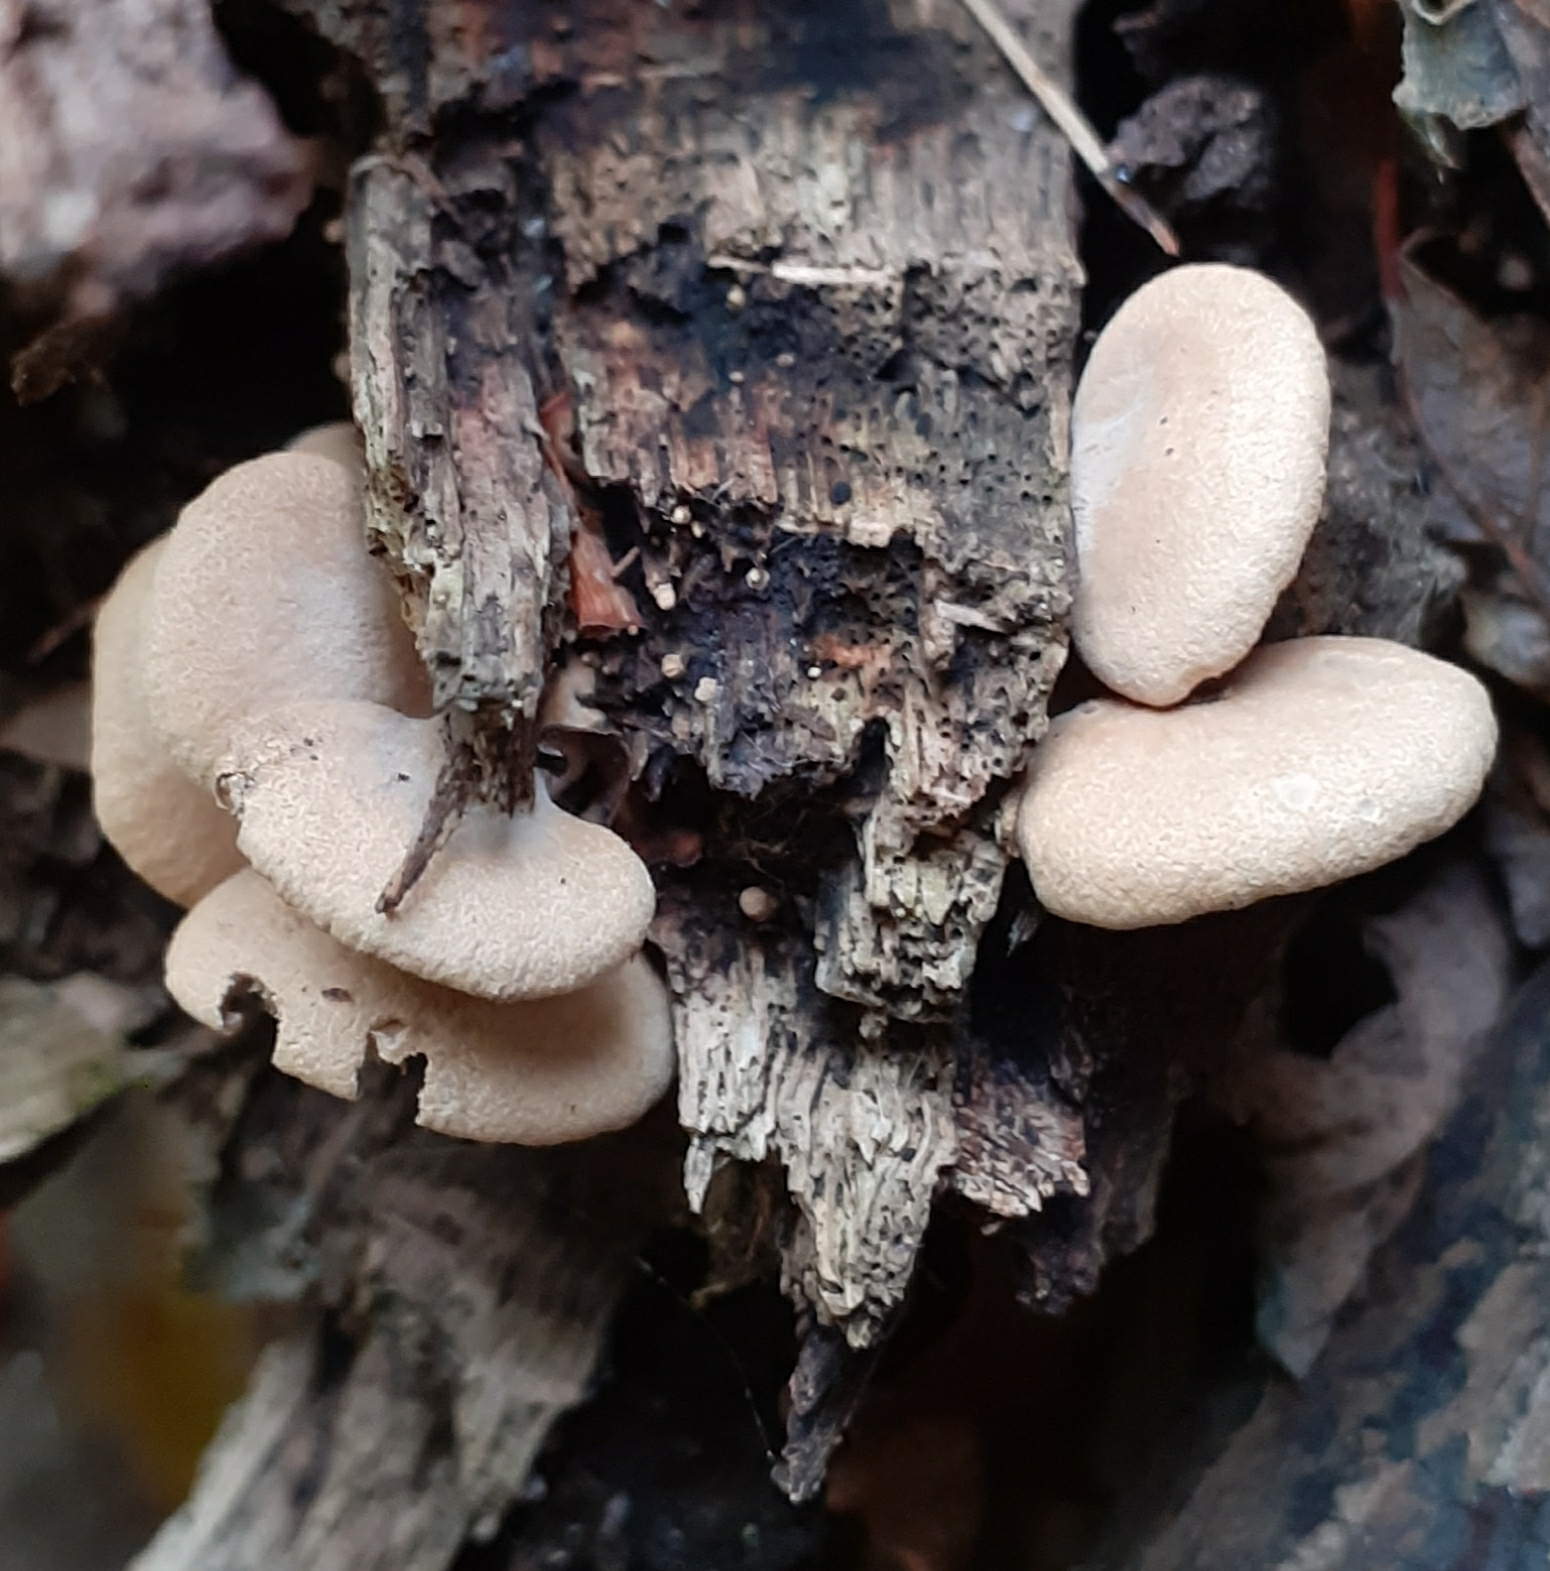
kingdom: Fungi
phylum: Basidiomycota
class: Agaricomycetes
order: Agaricales
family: Mycenaceae
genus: Panellus
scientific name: Panellus stipticus
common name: Bitter oysterling
